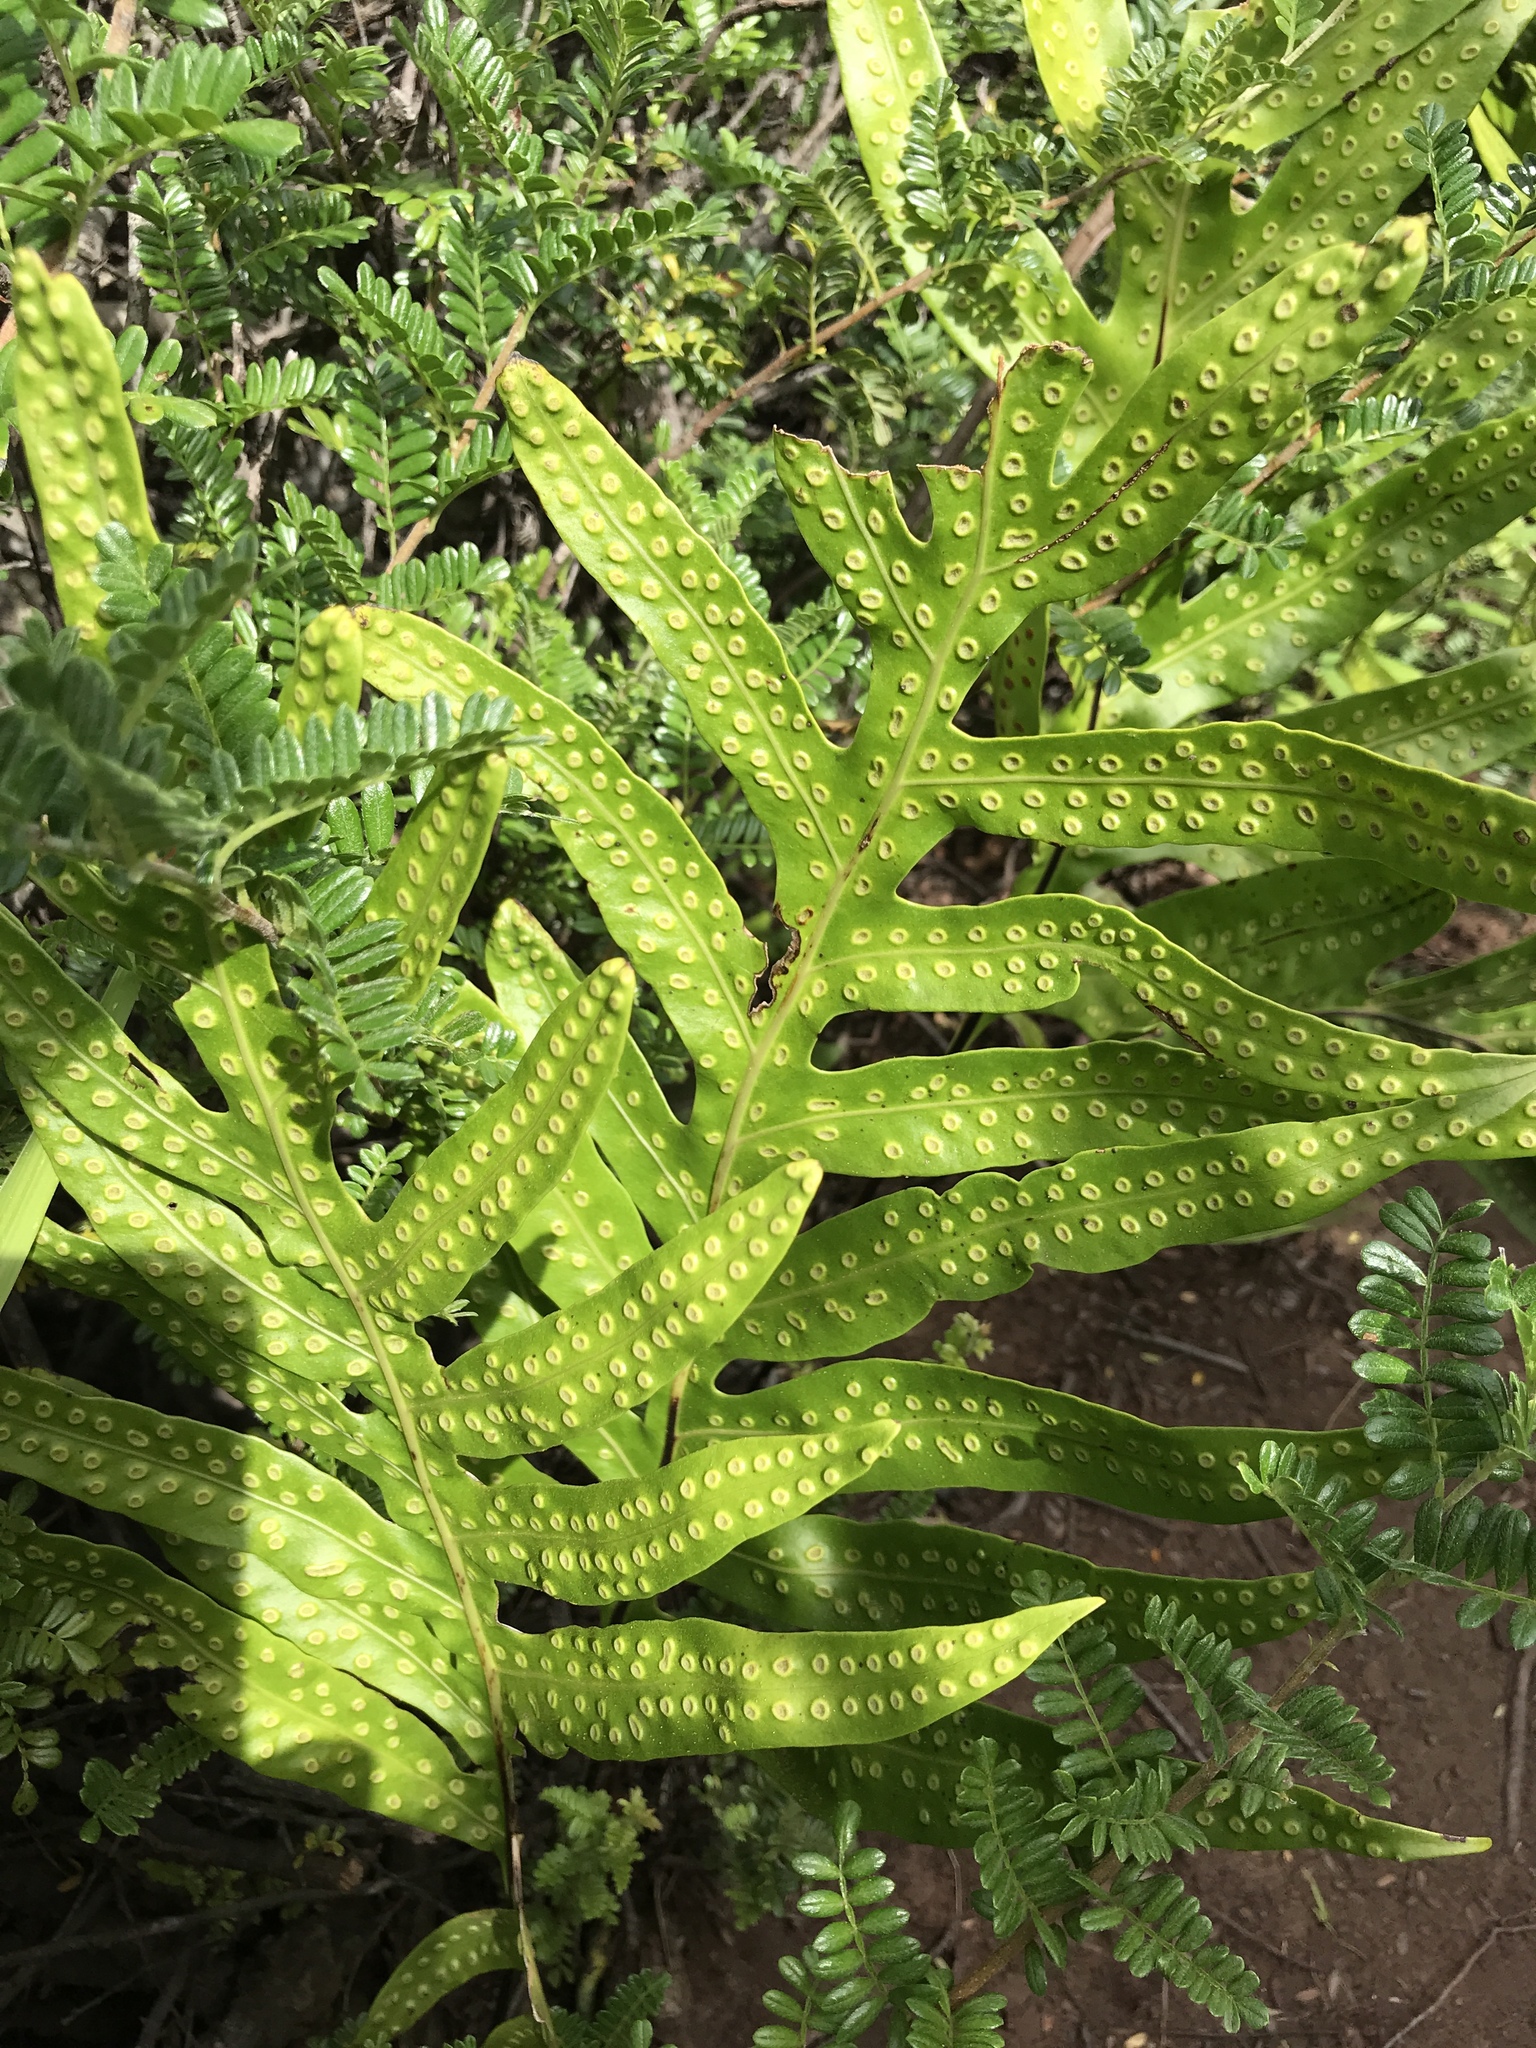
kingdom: Plantae
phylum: Tracheophyta
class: Polypodiopsida
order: Polypodiales
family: Polypodiaceae
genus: Microsorum
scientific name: Microsorum grossum
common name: Musk fern
